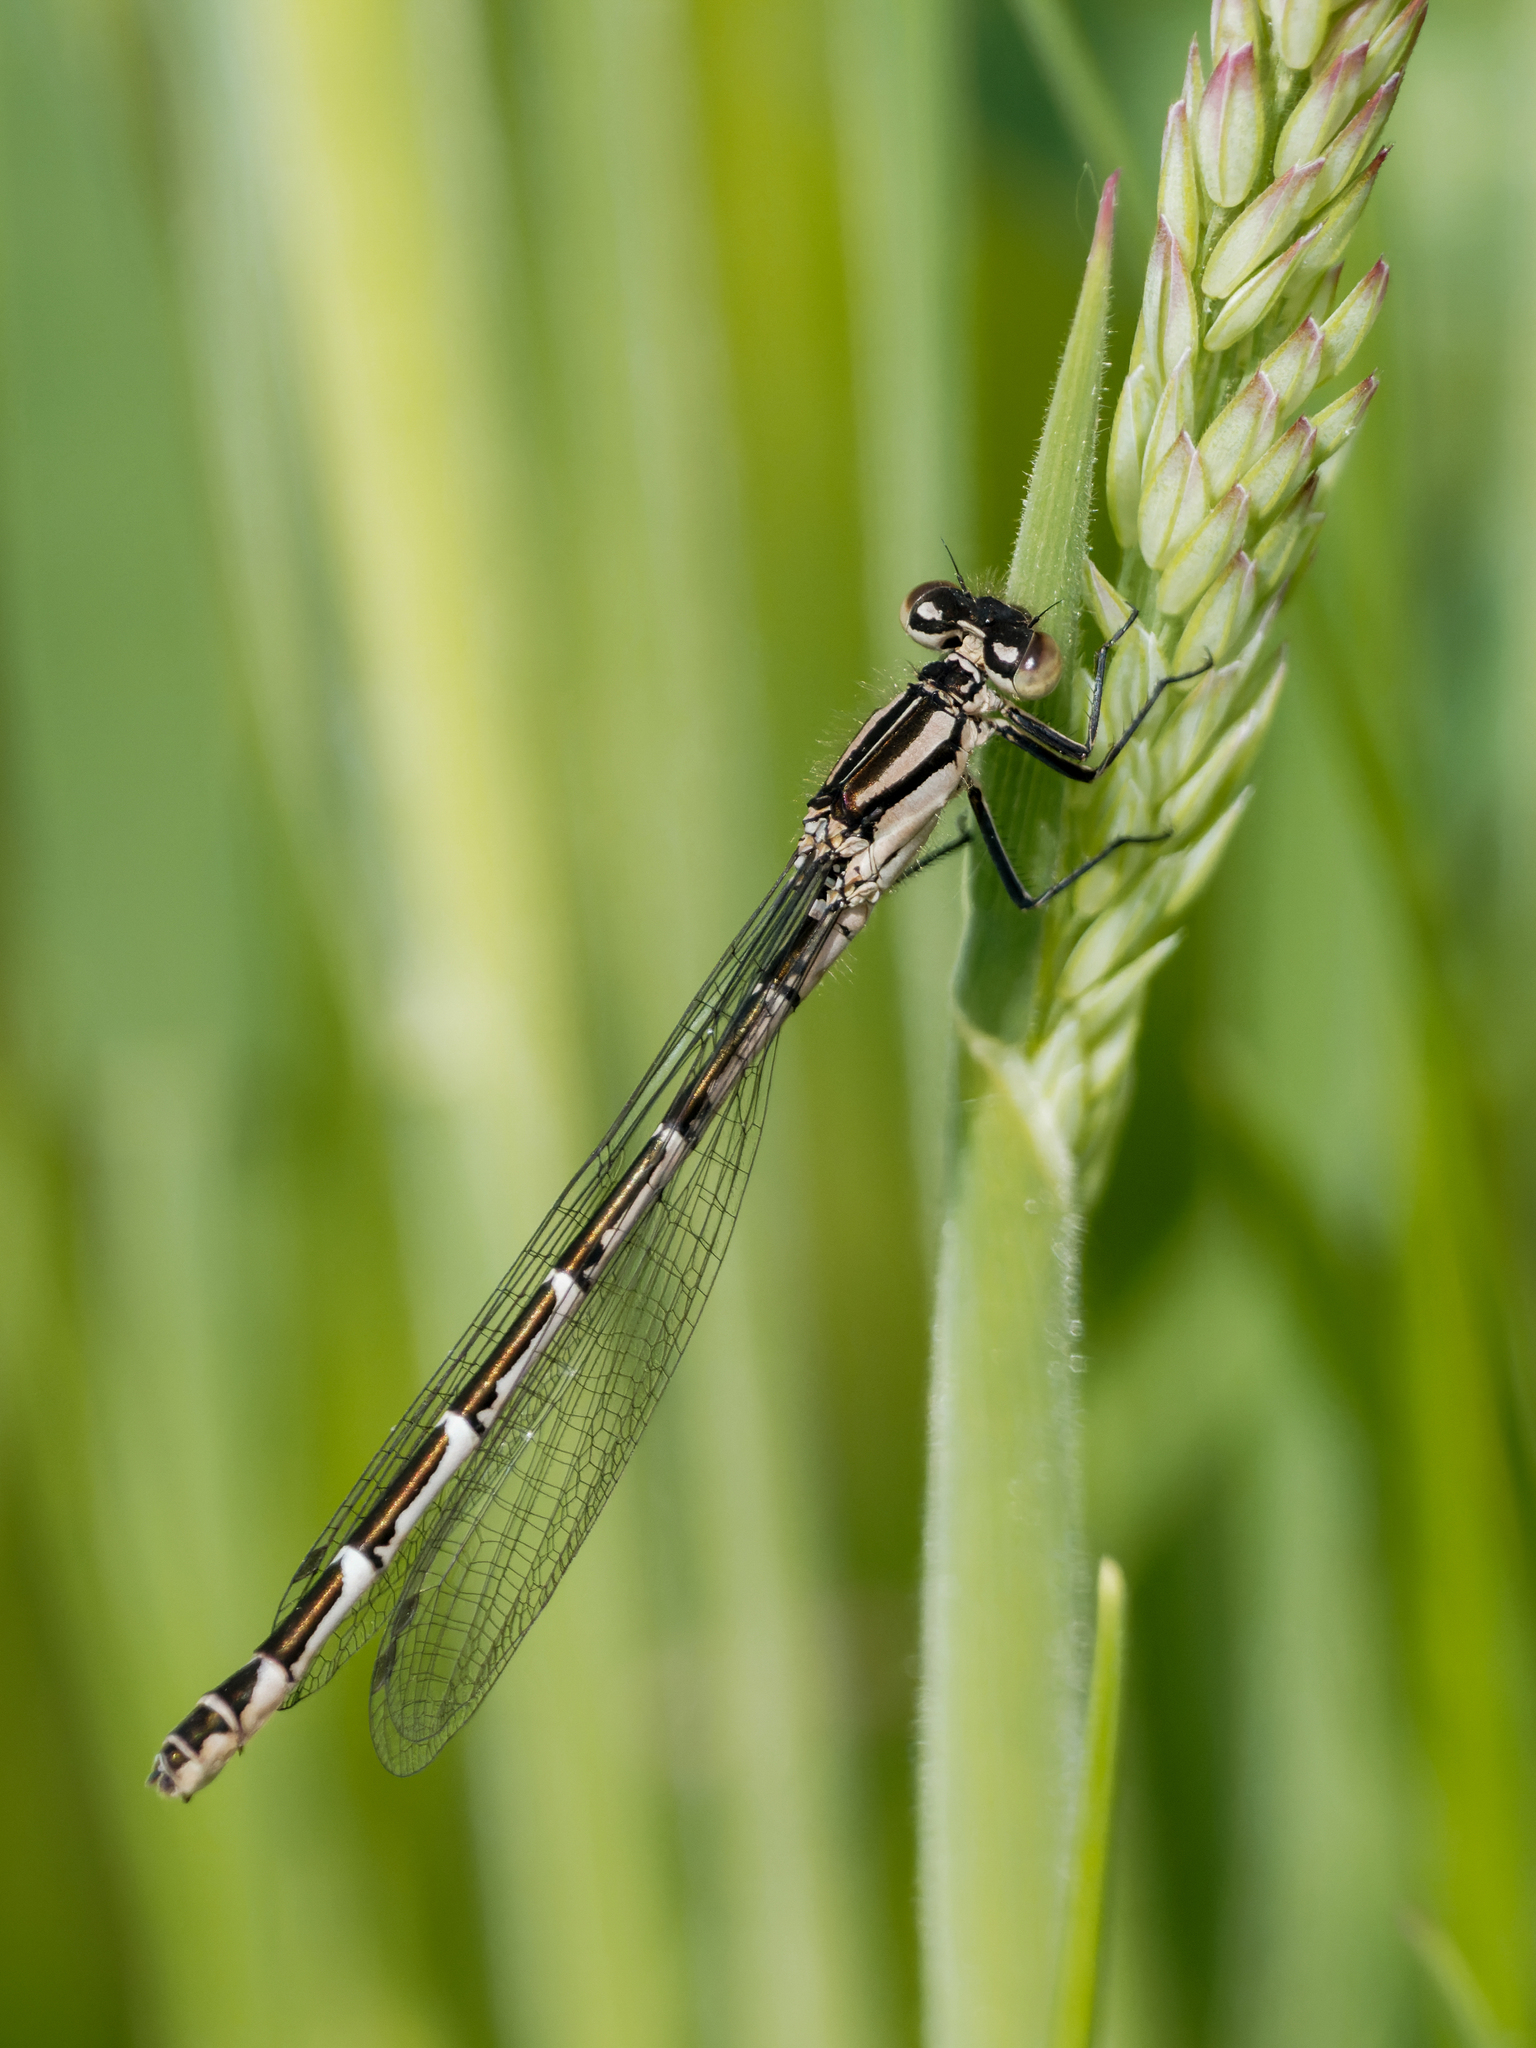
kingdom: Animalia
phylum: Arthropoda
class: Insecta
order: Odonata
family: Coenagrionidae
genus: Enallagma
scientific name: Enallagma cyathigerum
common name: Common blue damselfly
